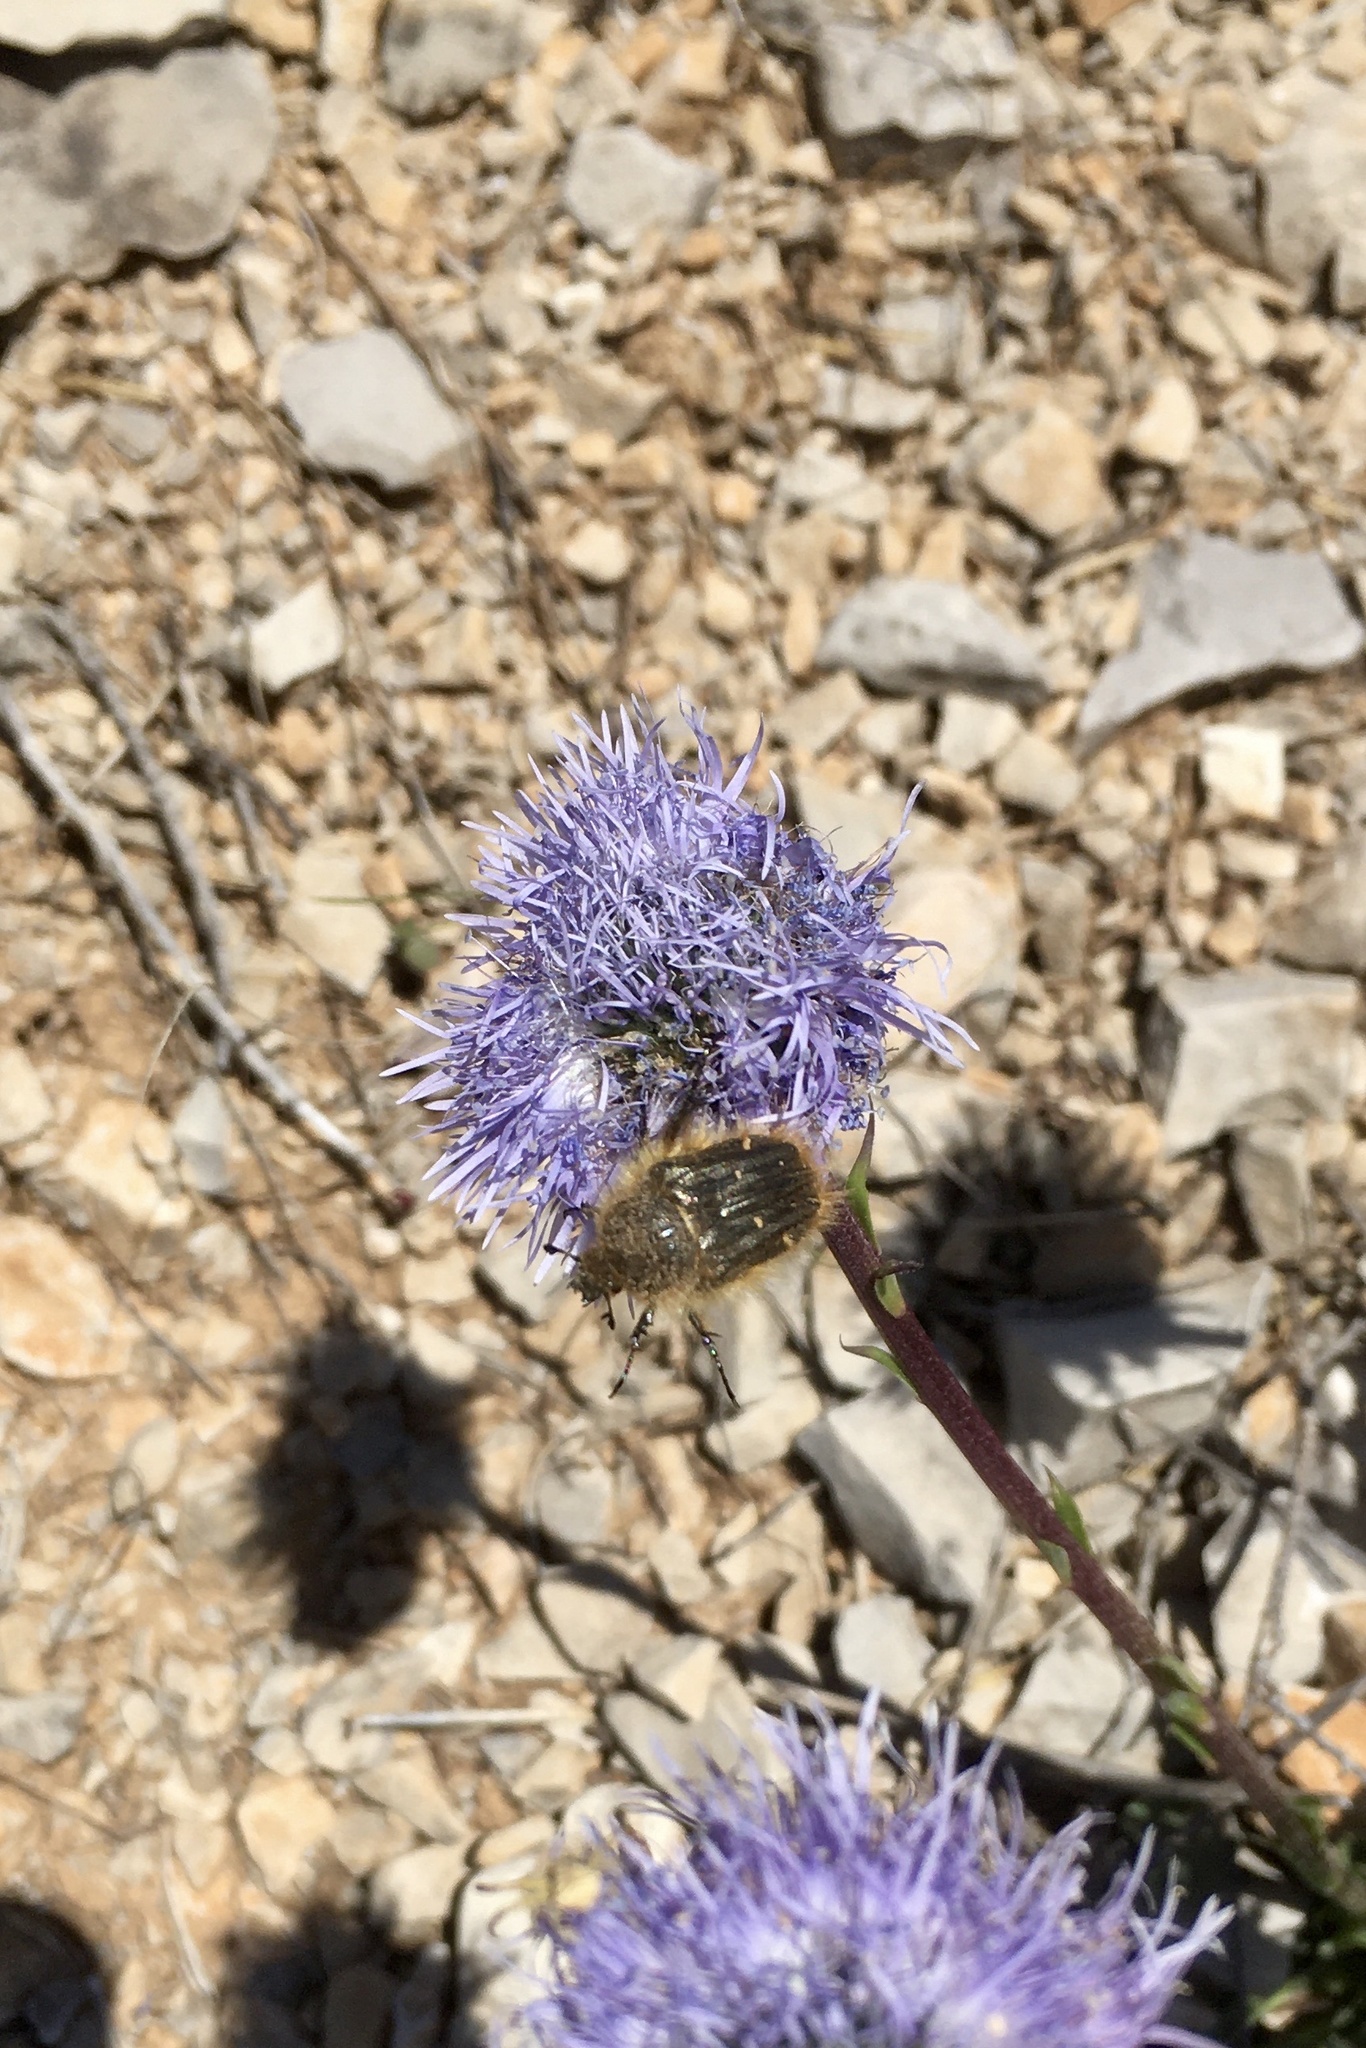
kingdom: Animalia
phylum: Arthropoda
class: Insecta
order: Coleoptera
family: Scarabaeidae
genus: Tropinota
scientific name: Tropinota squalida
